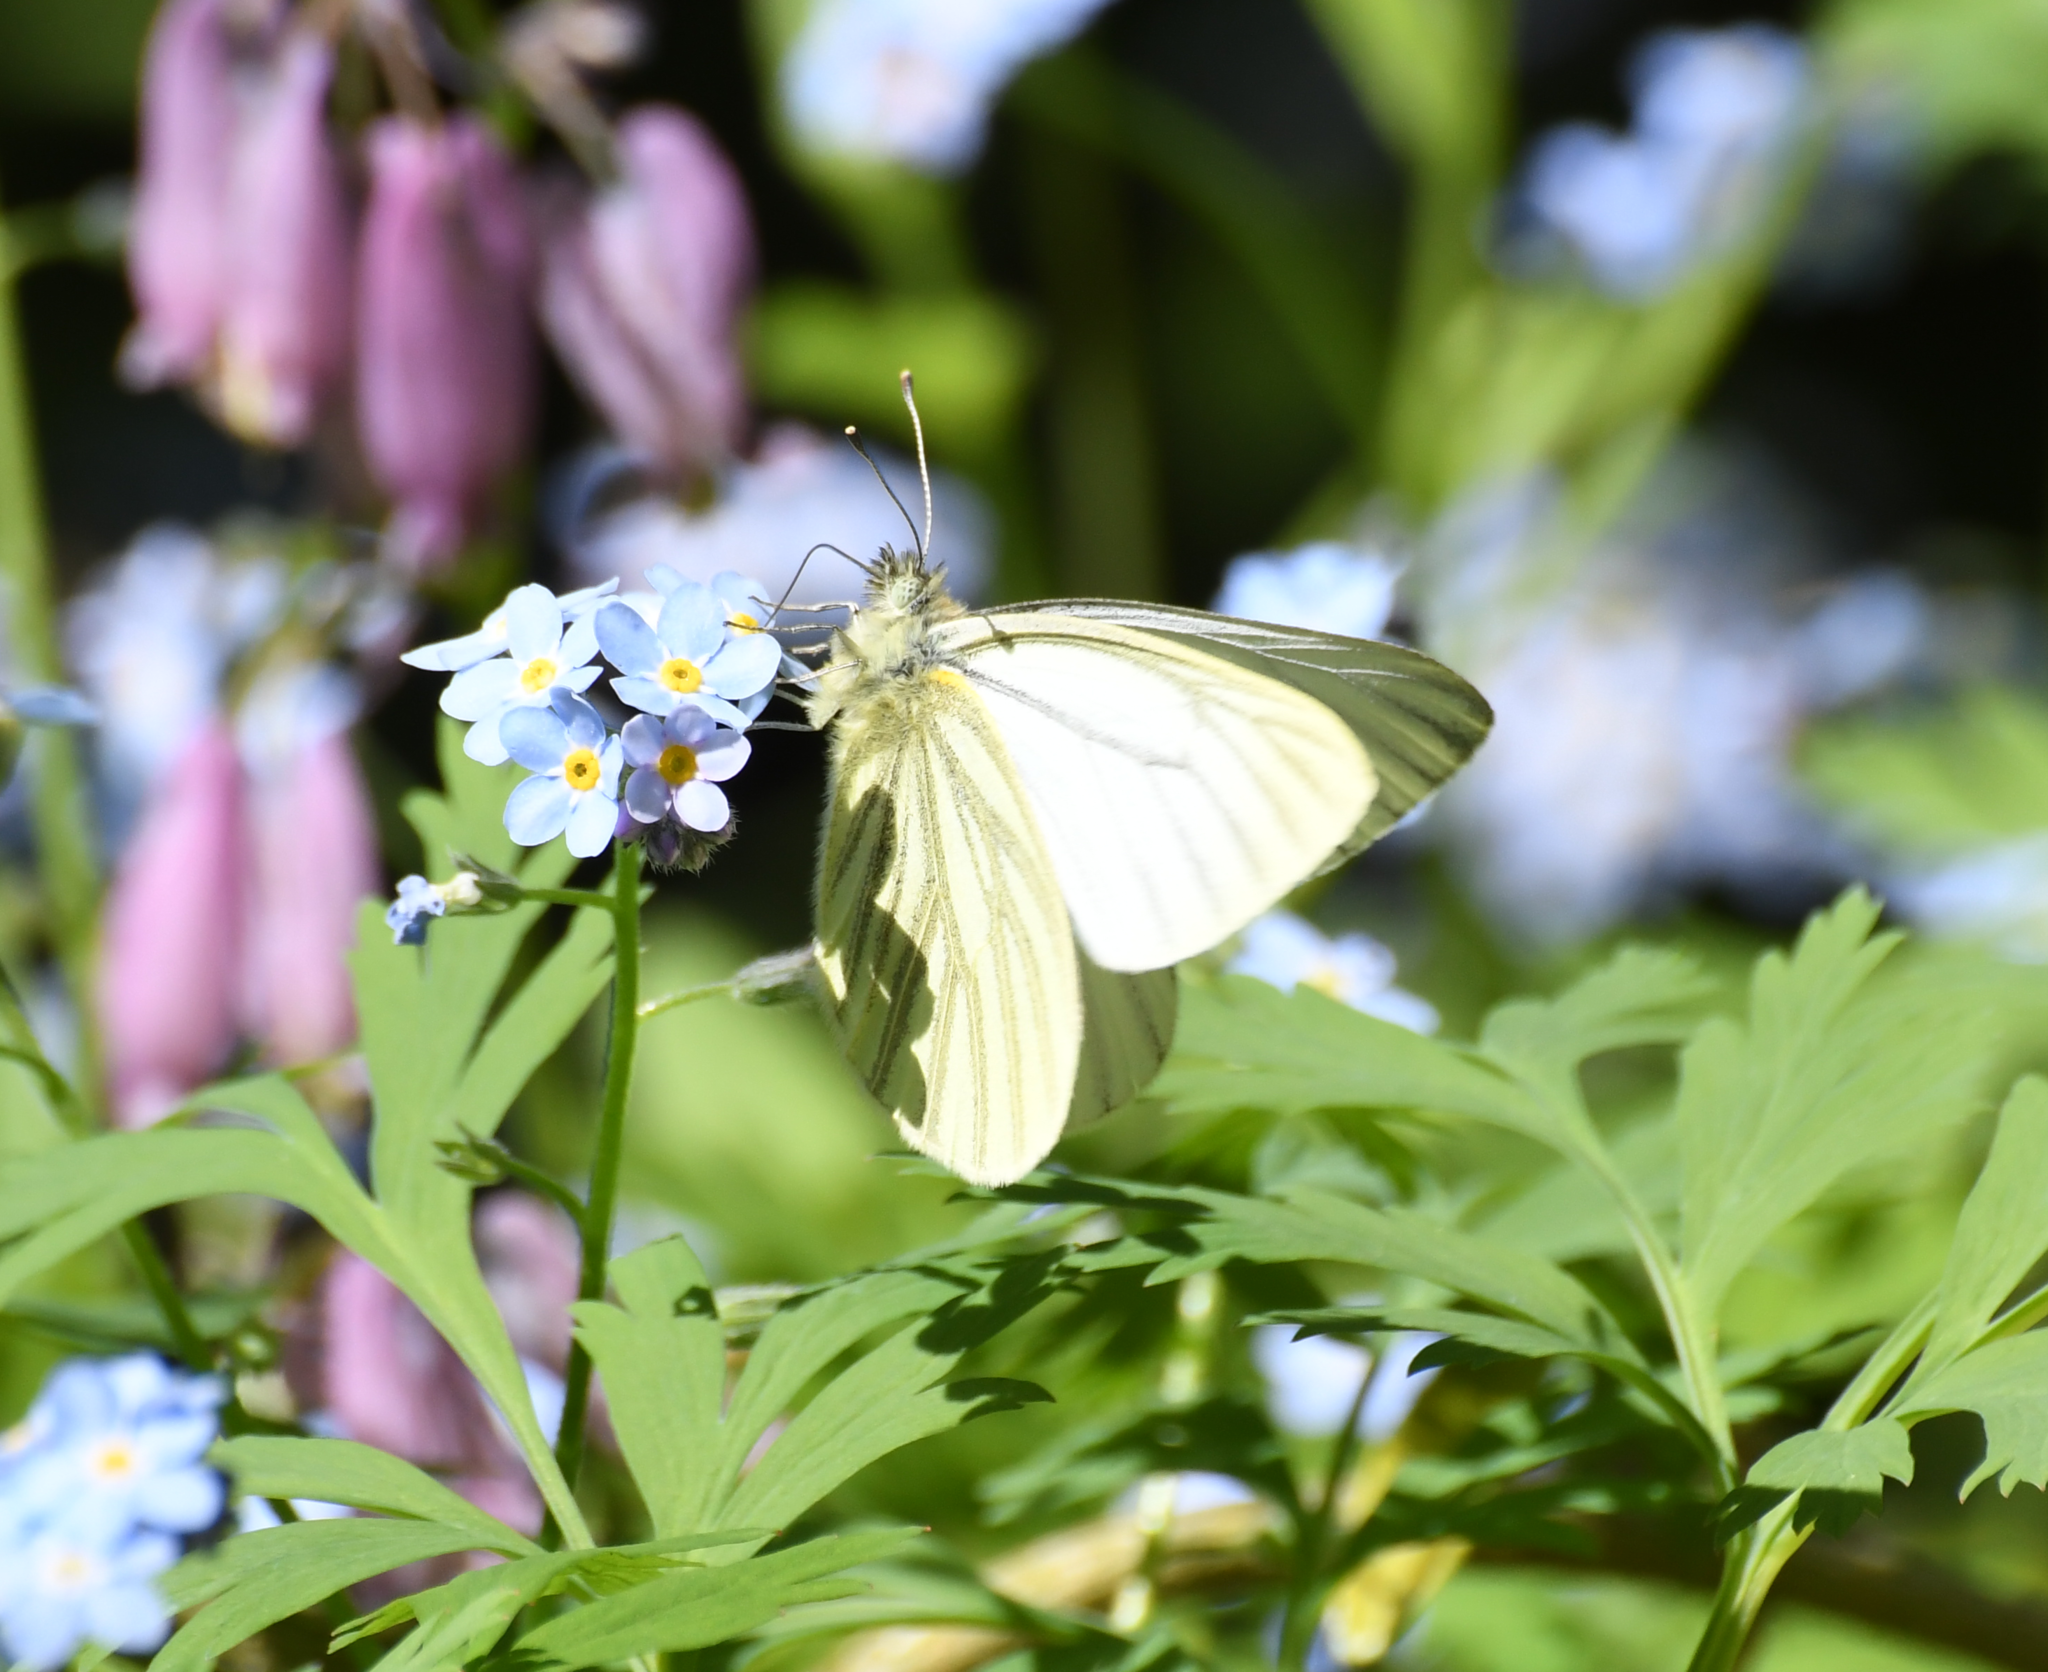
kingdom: Animalia
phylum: Arthropoda
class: Insecta
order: Lepidoptera
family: Pieridae
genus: Pieris
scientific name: Pieris marginalis
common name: Margined white
